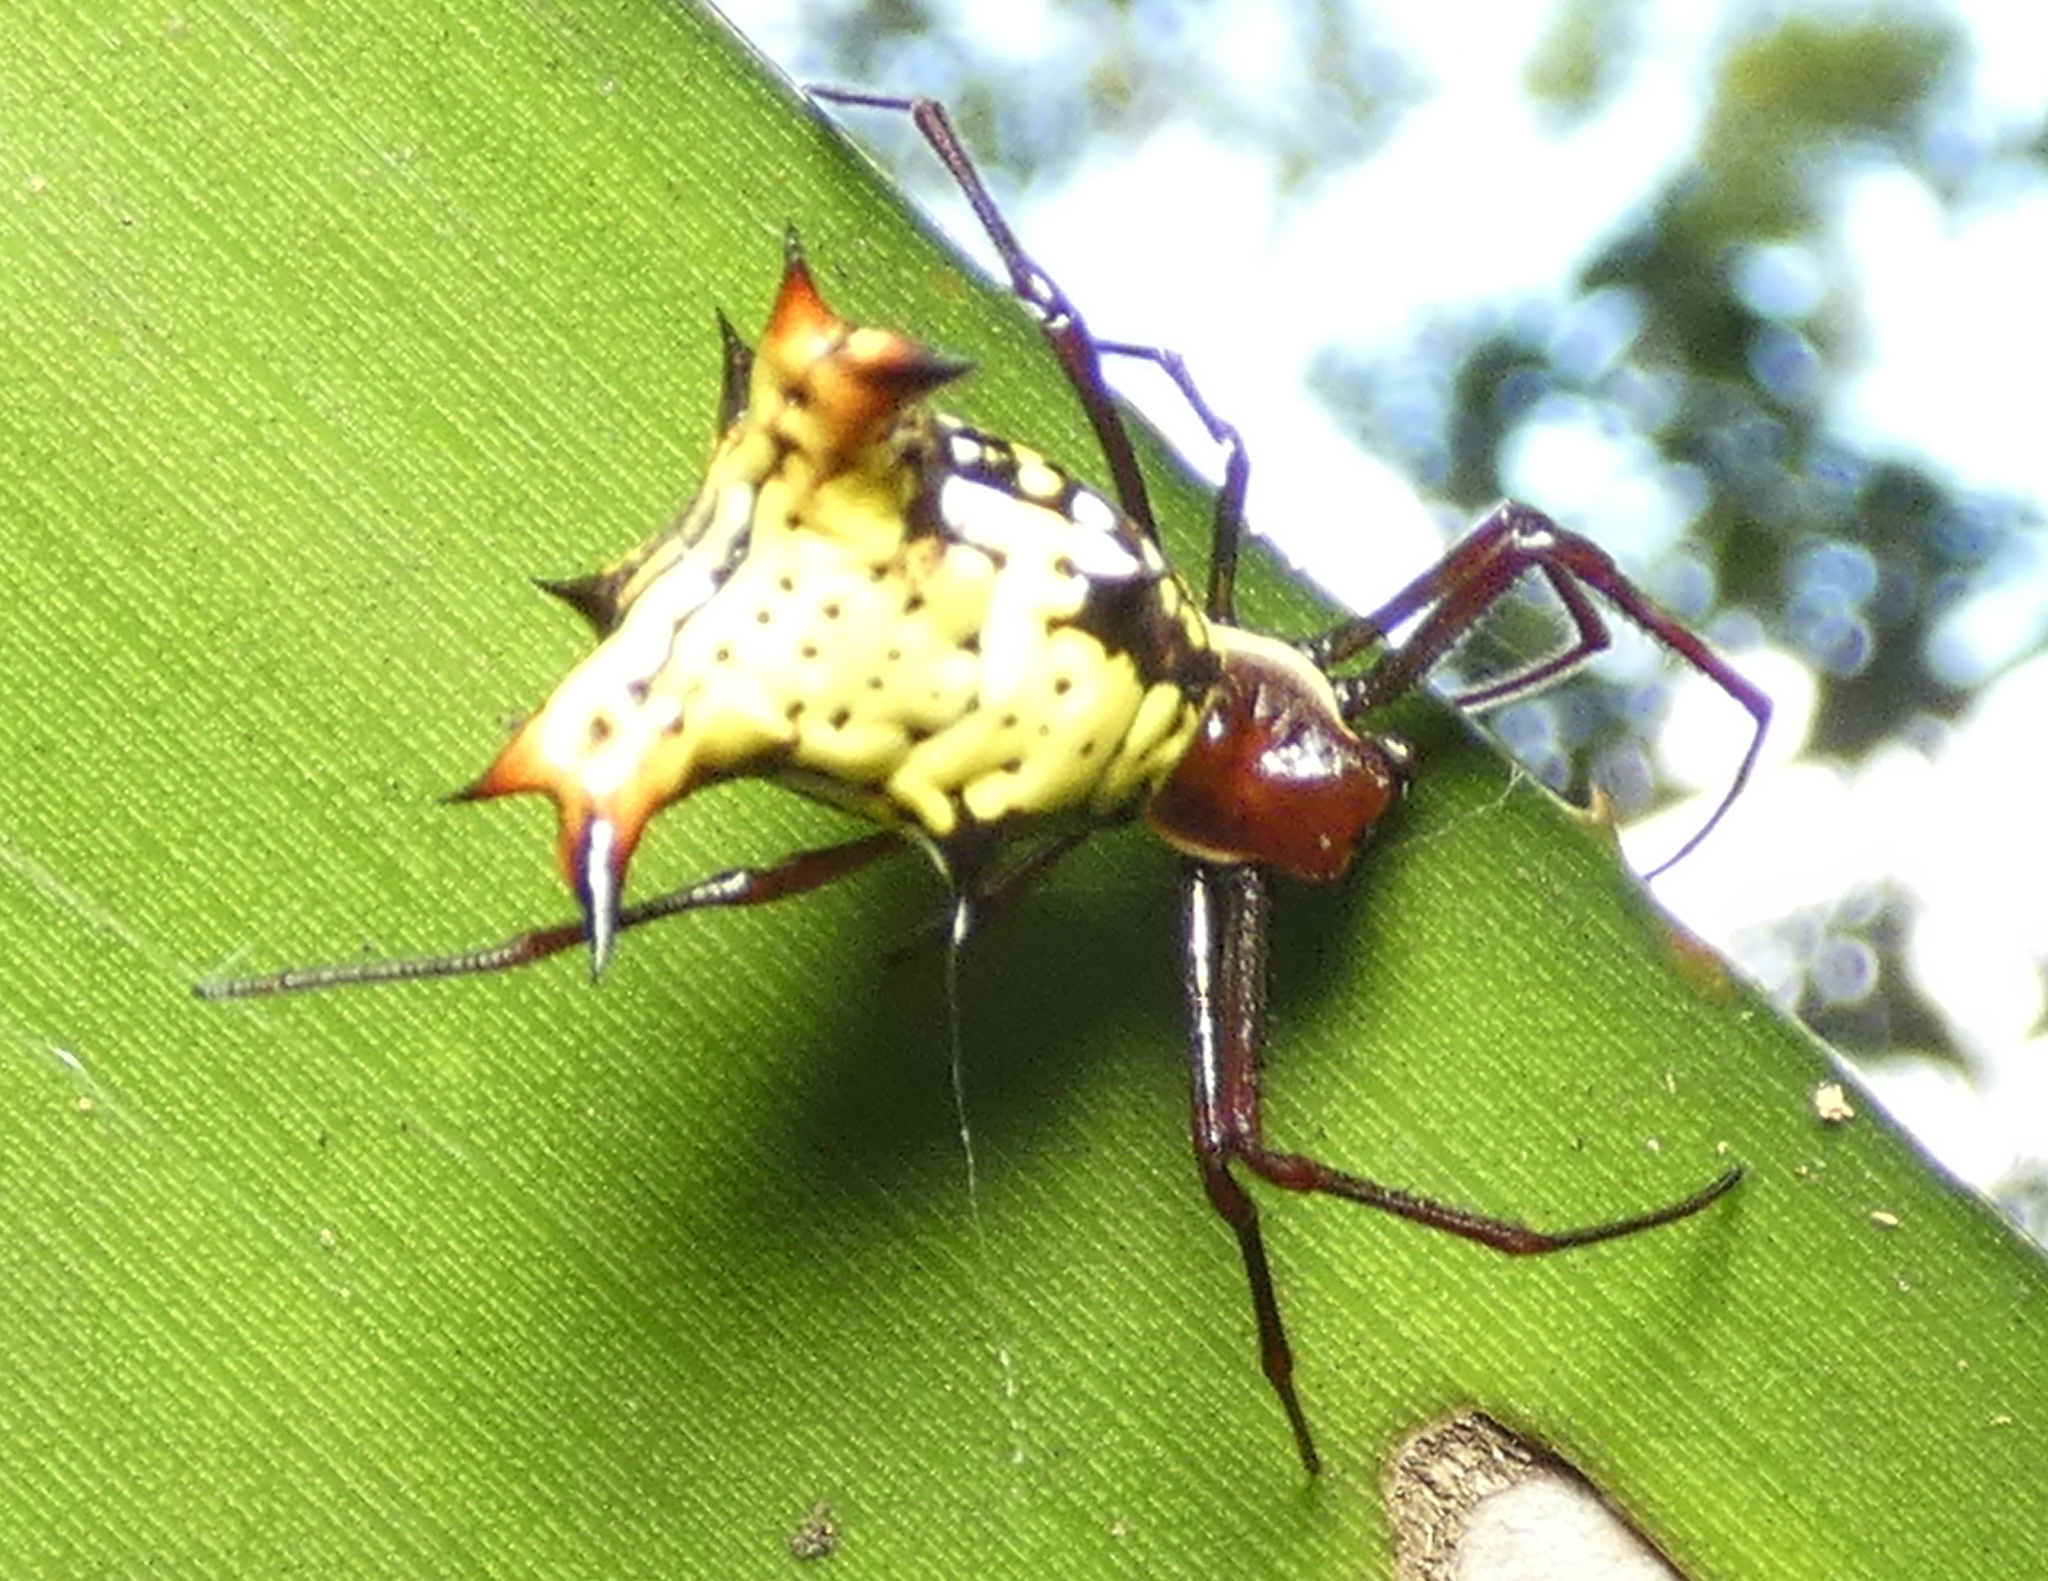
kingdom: Animalia
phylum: Arthropoda
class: Arachnida
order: Araneae
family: Araneidae
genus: Micrathena
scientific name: Micrathena fissispina
